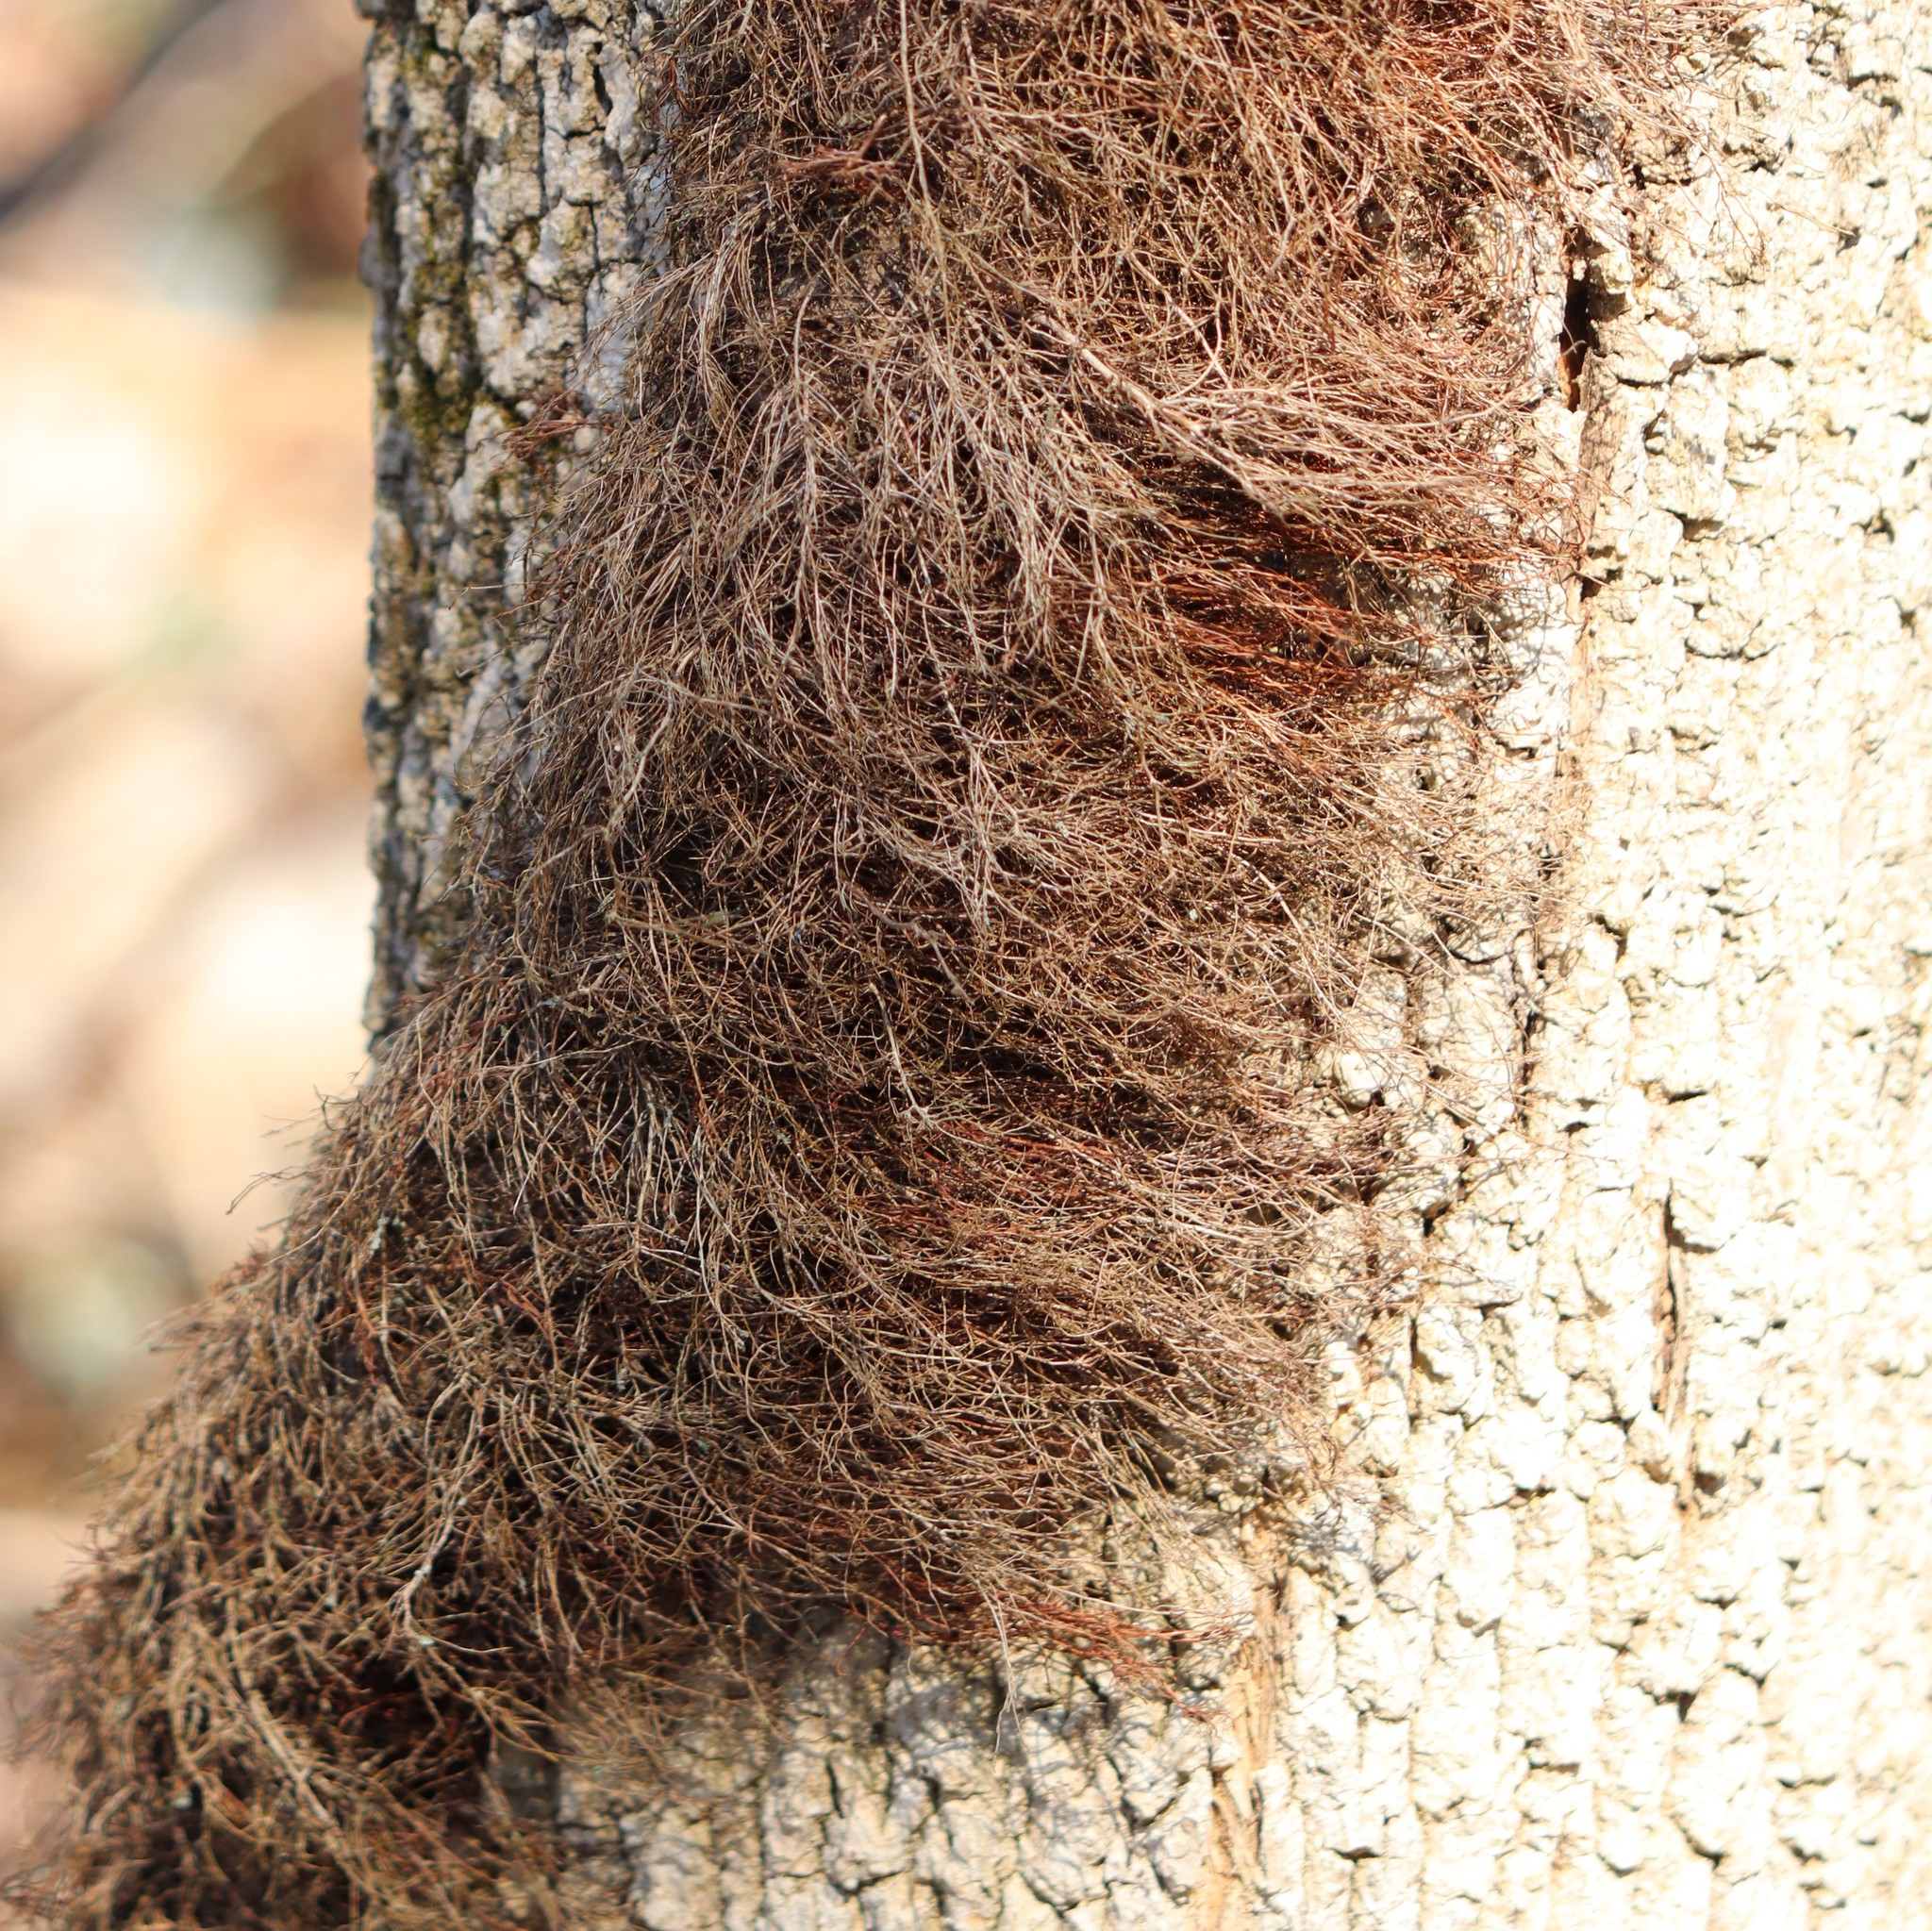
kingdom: Plantae
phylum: Tracheophyta
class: Magnoliopsida
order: Sapindales
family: Anacardiaceae
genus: Toxicodendron
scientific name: Toxicodendron radicans
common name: Poison ivy
